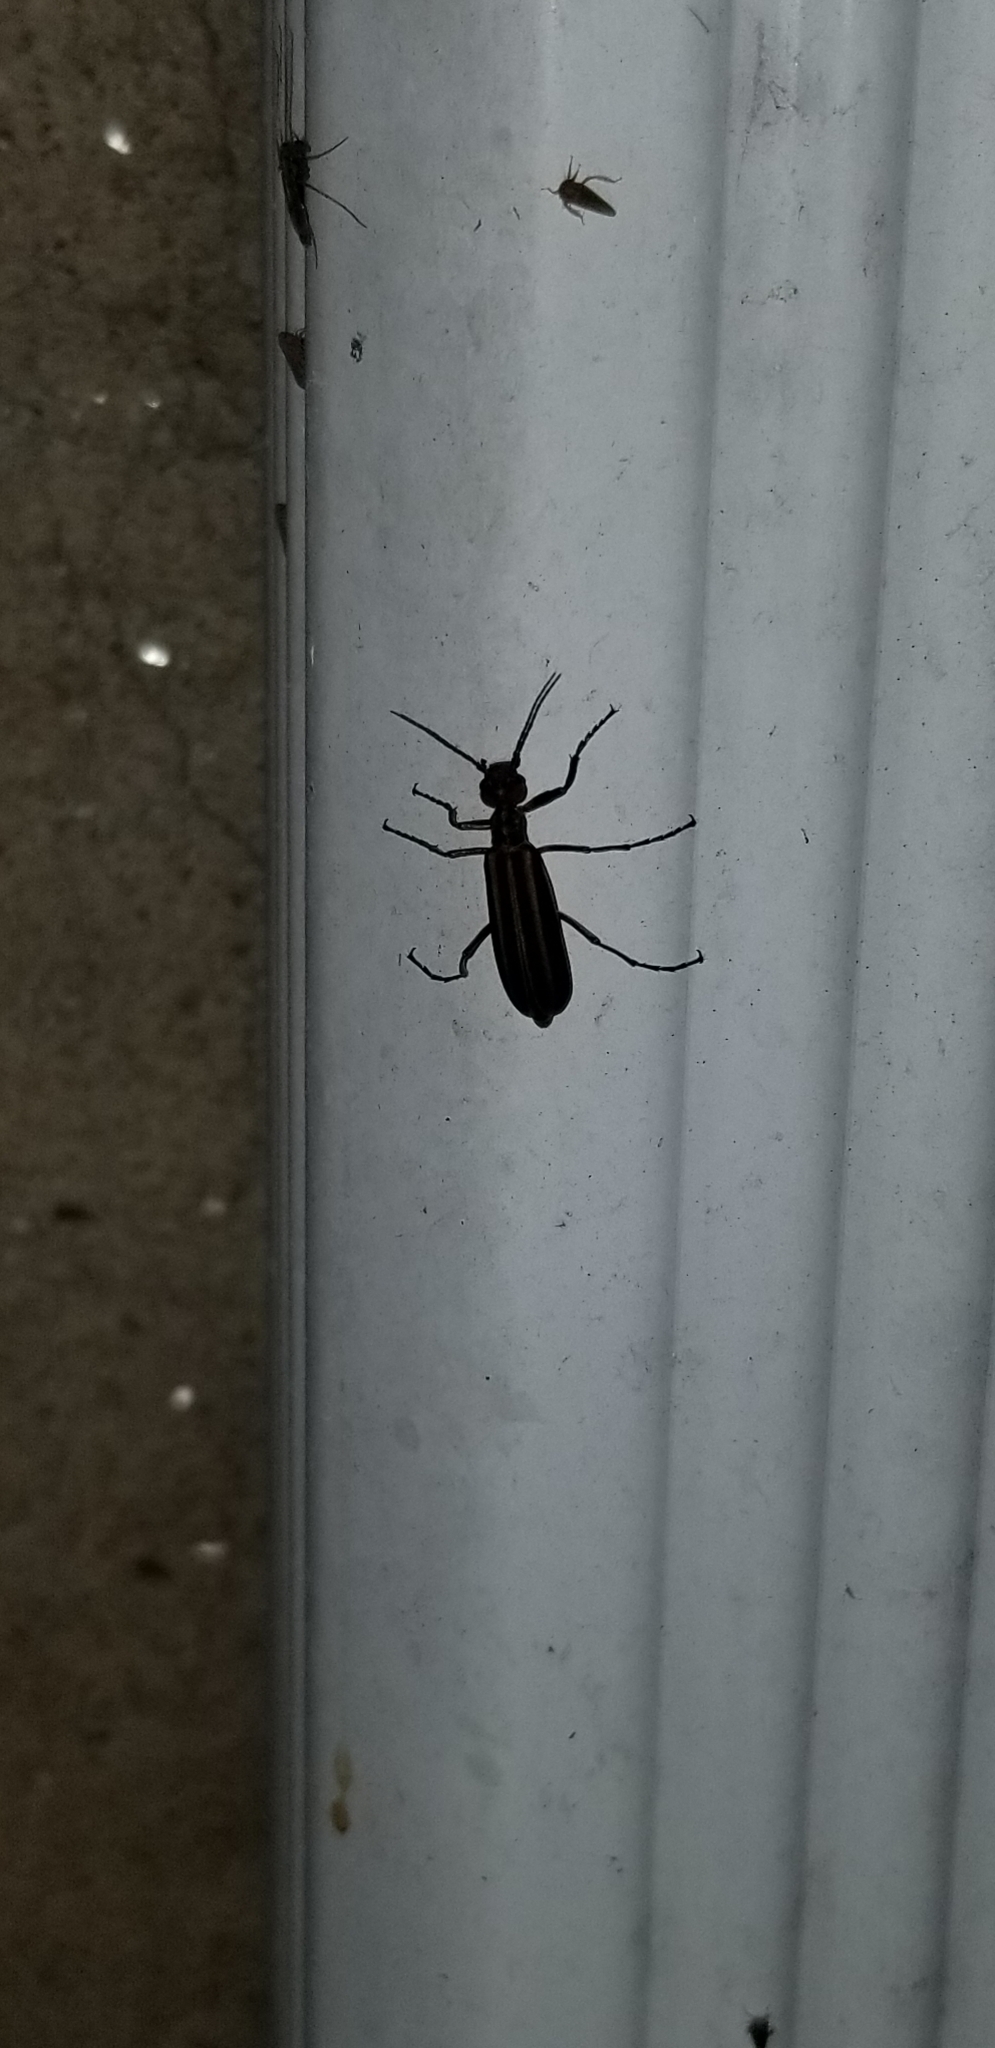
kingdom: Animalia
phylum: Arthropoda
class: Insecta
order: Coleoptera
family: Meloidae
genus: Epicauta
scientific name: Epicauta vittata
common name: Old-fashioned potato beetle
